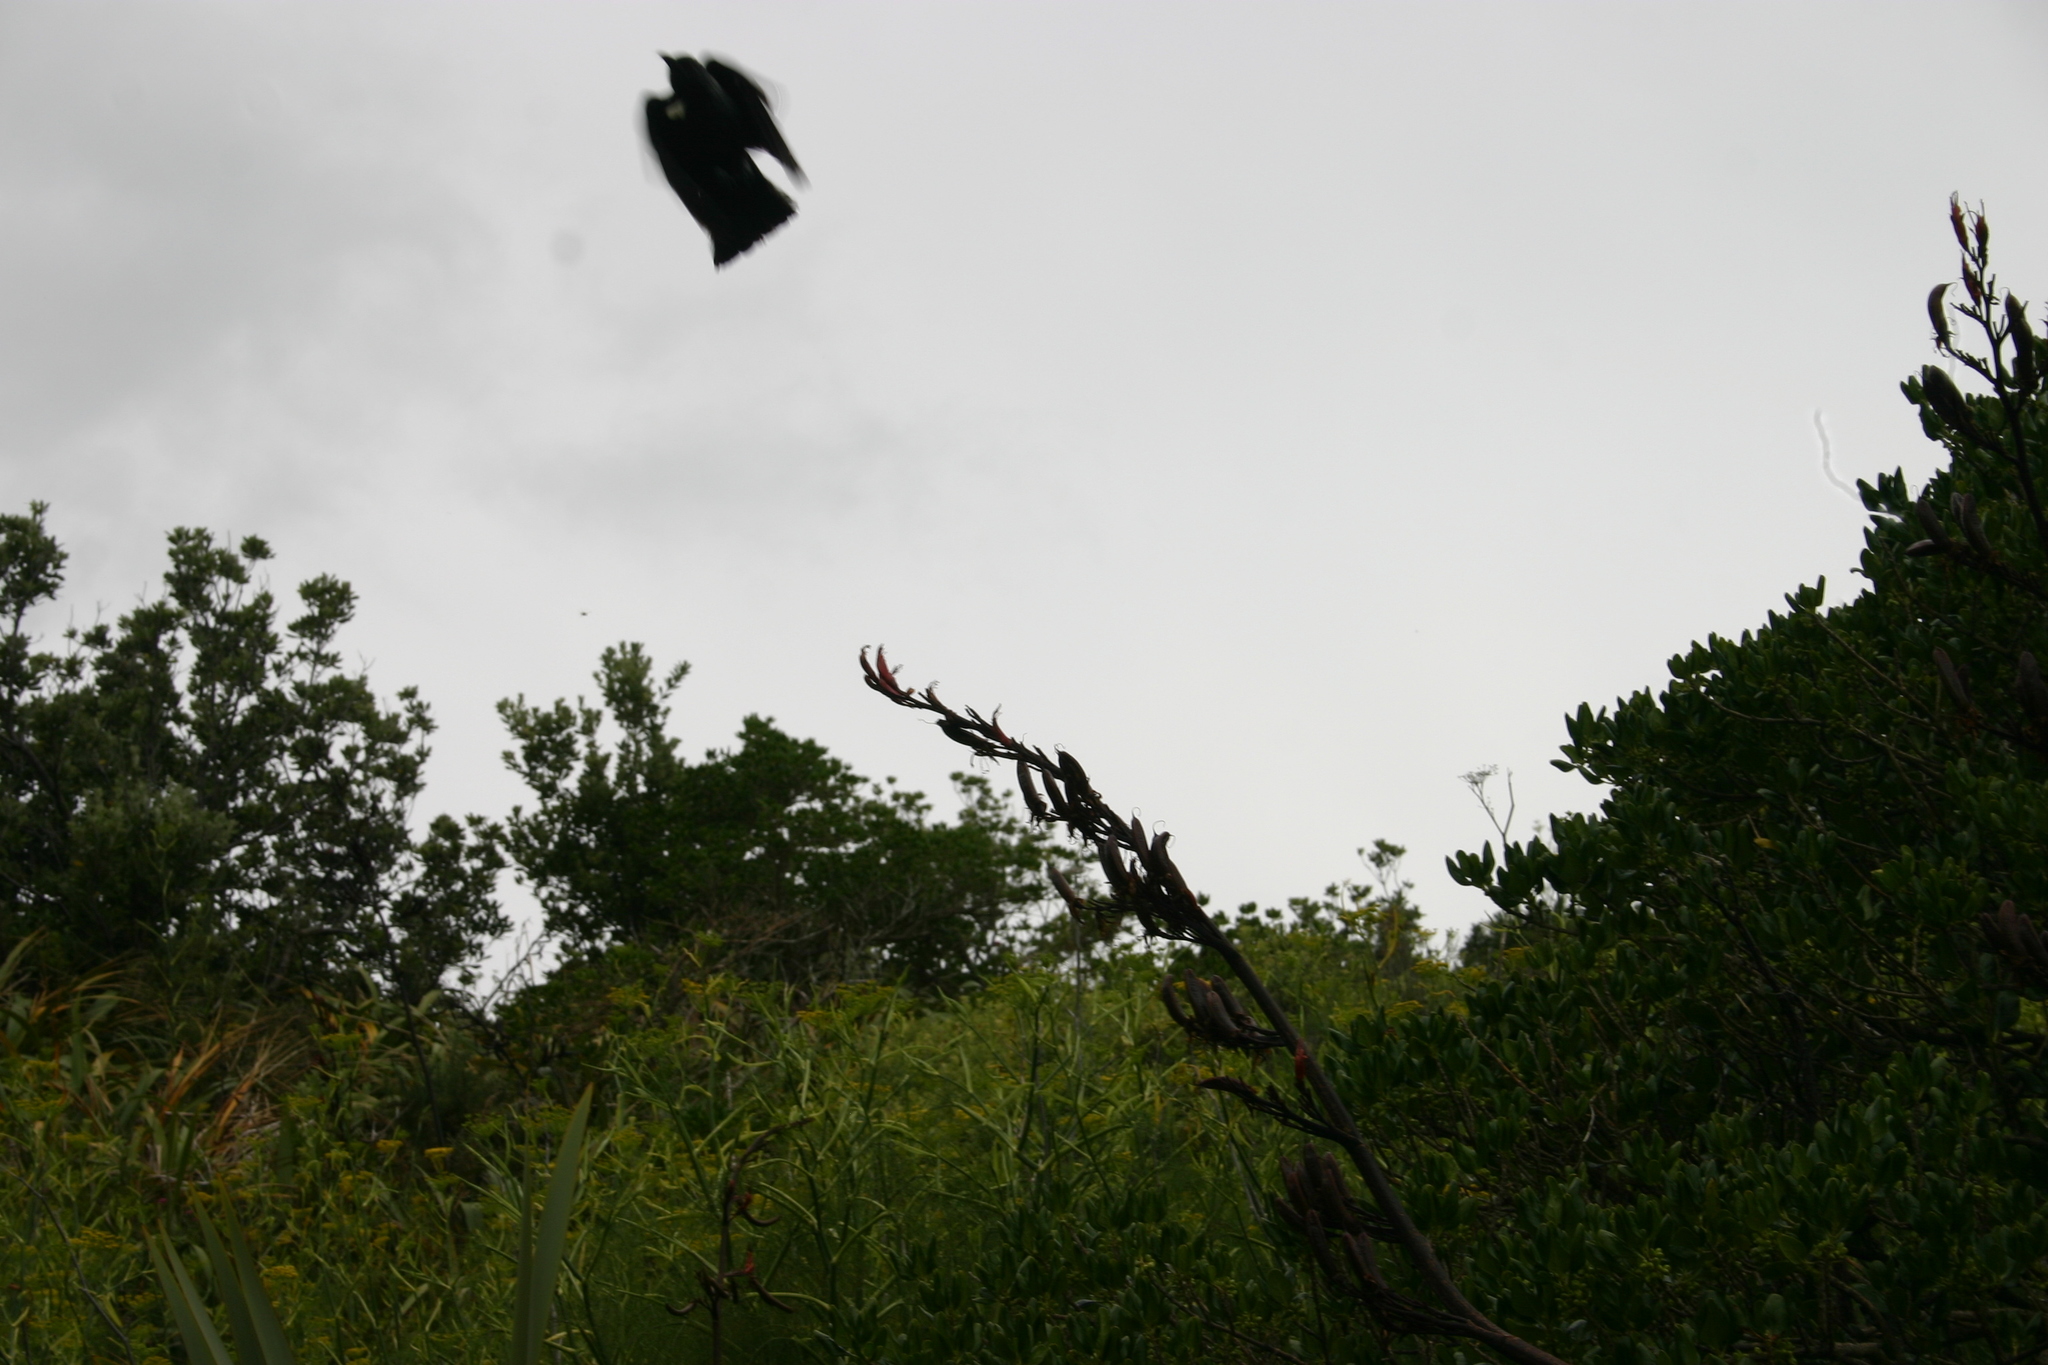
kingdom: Animalia
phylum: Chordata
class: Aves
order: Passeriformes
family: Meliphagidae
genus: Prosthemadera
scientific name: Prosthemadera novaeseelandiae
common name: Tui
